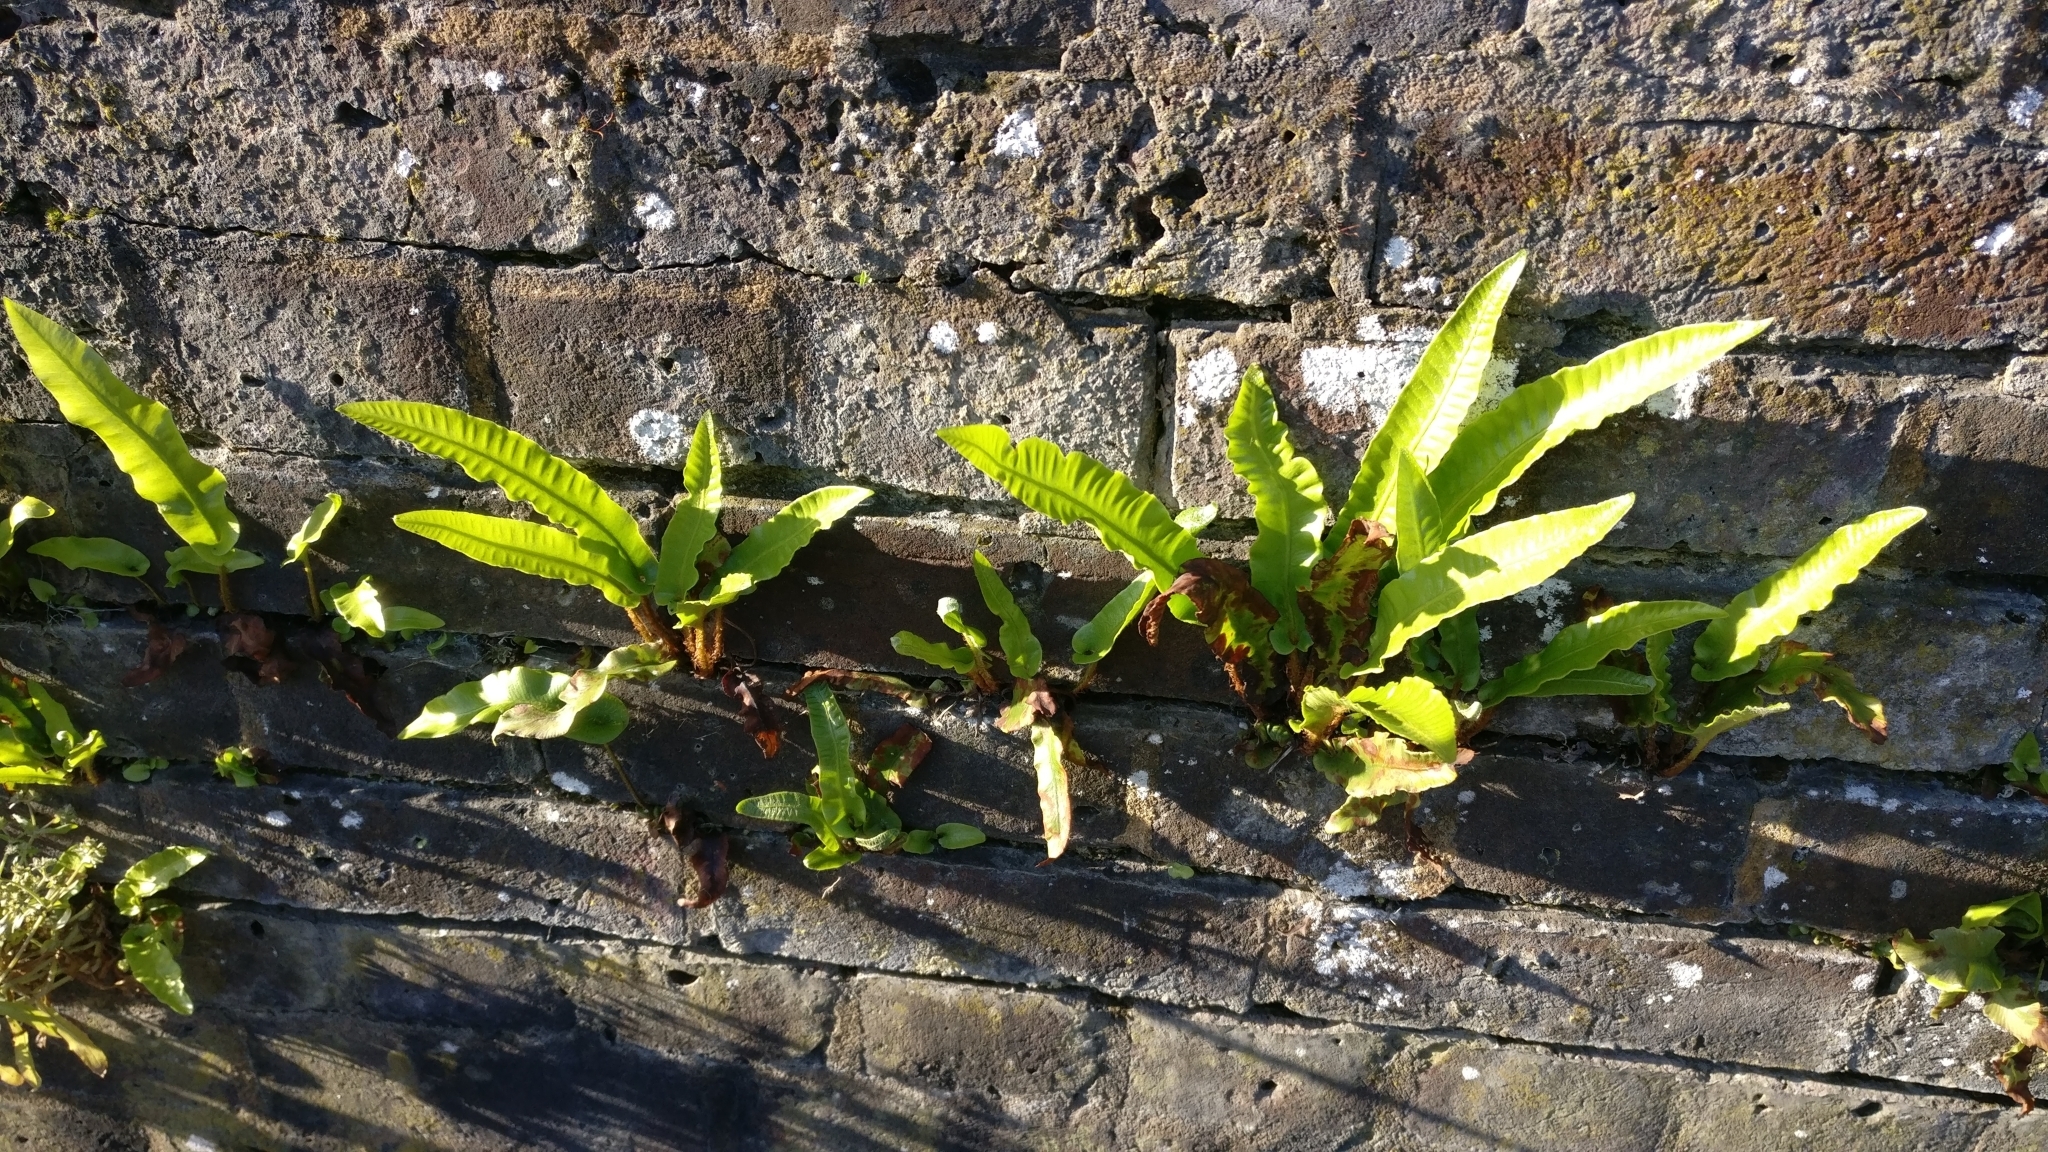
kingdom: Plantae
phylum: Tracheophyta
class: Polypodiopsida
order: Polypodiales
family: Aspleniaceae
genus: Asplenium
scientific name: Asplenium scolopendrium
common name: Hart's-tongue fern
